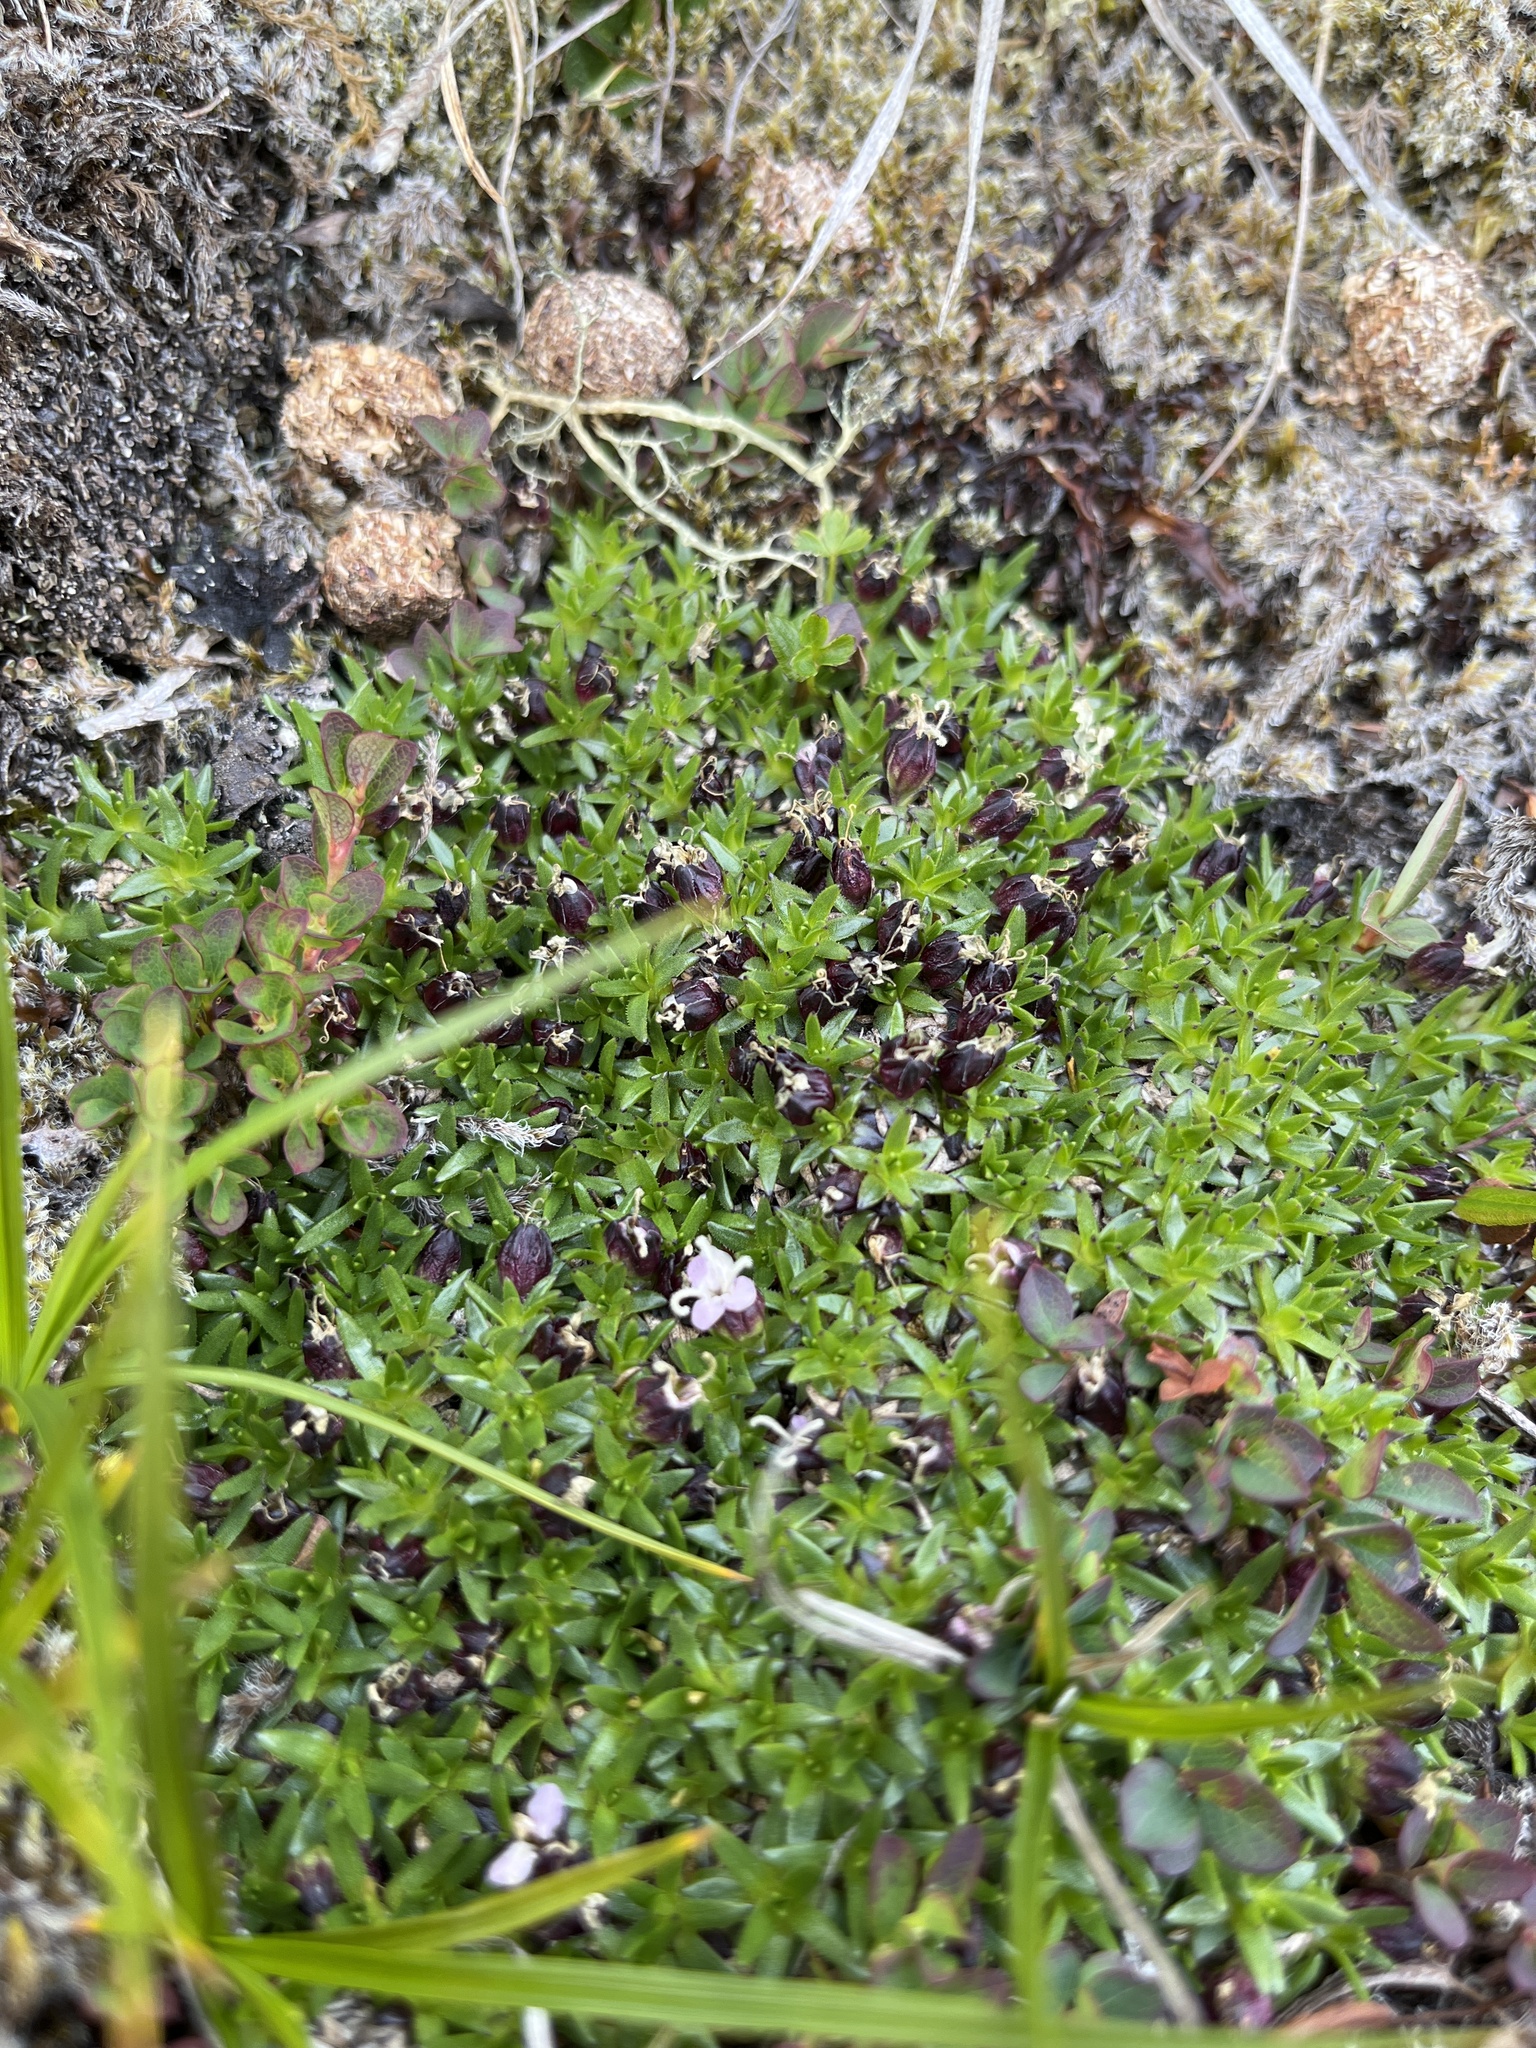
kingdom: Plantae
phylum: Tracheophyta
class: Magnoliopsida
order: Caryophyllales
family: Caryophyllaceae
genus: Silene
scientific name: Silene acaulis
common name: Moss campion
